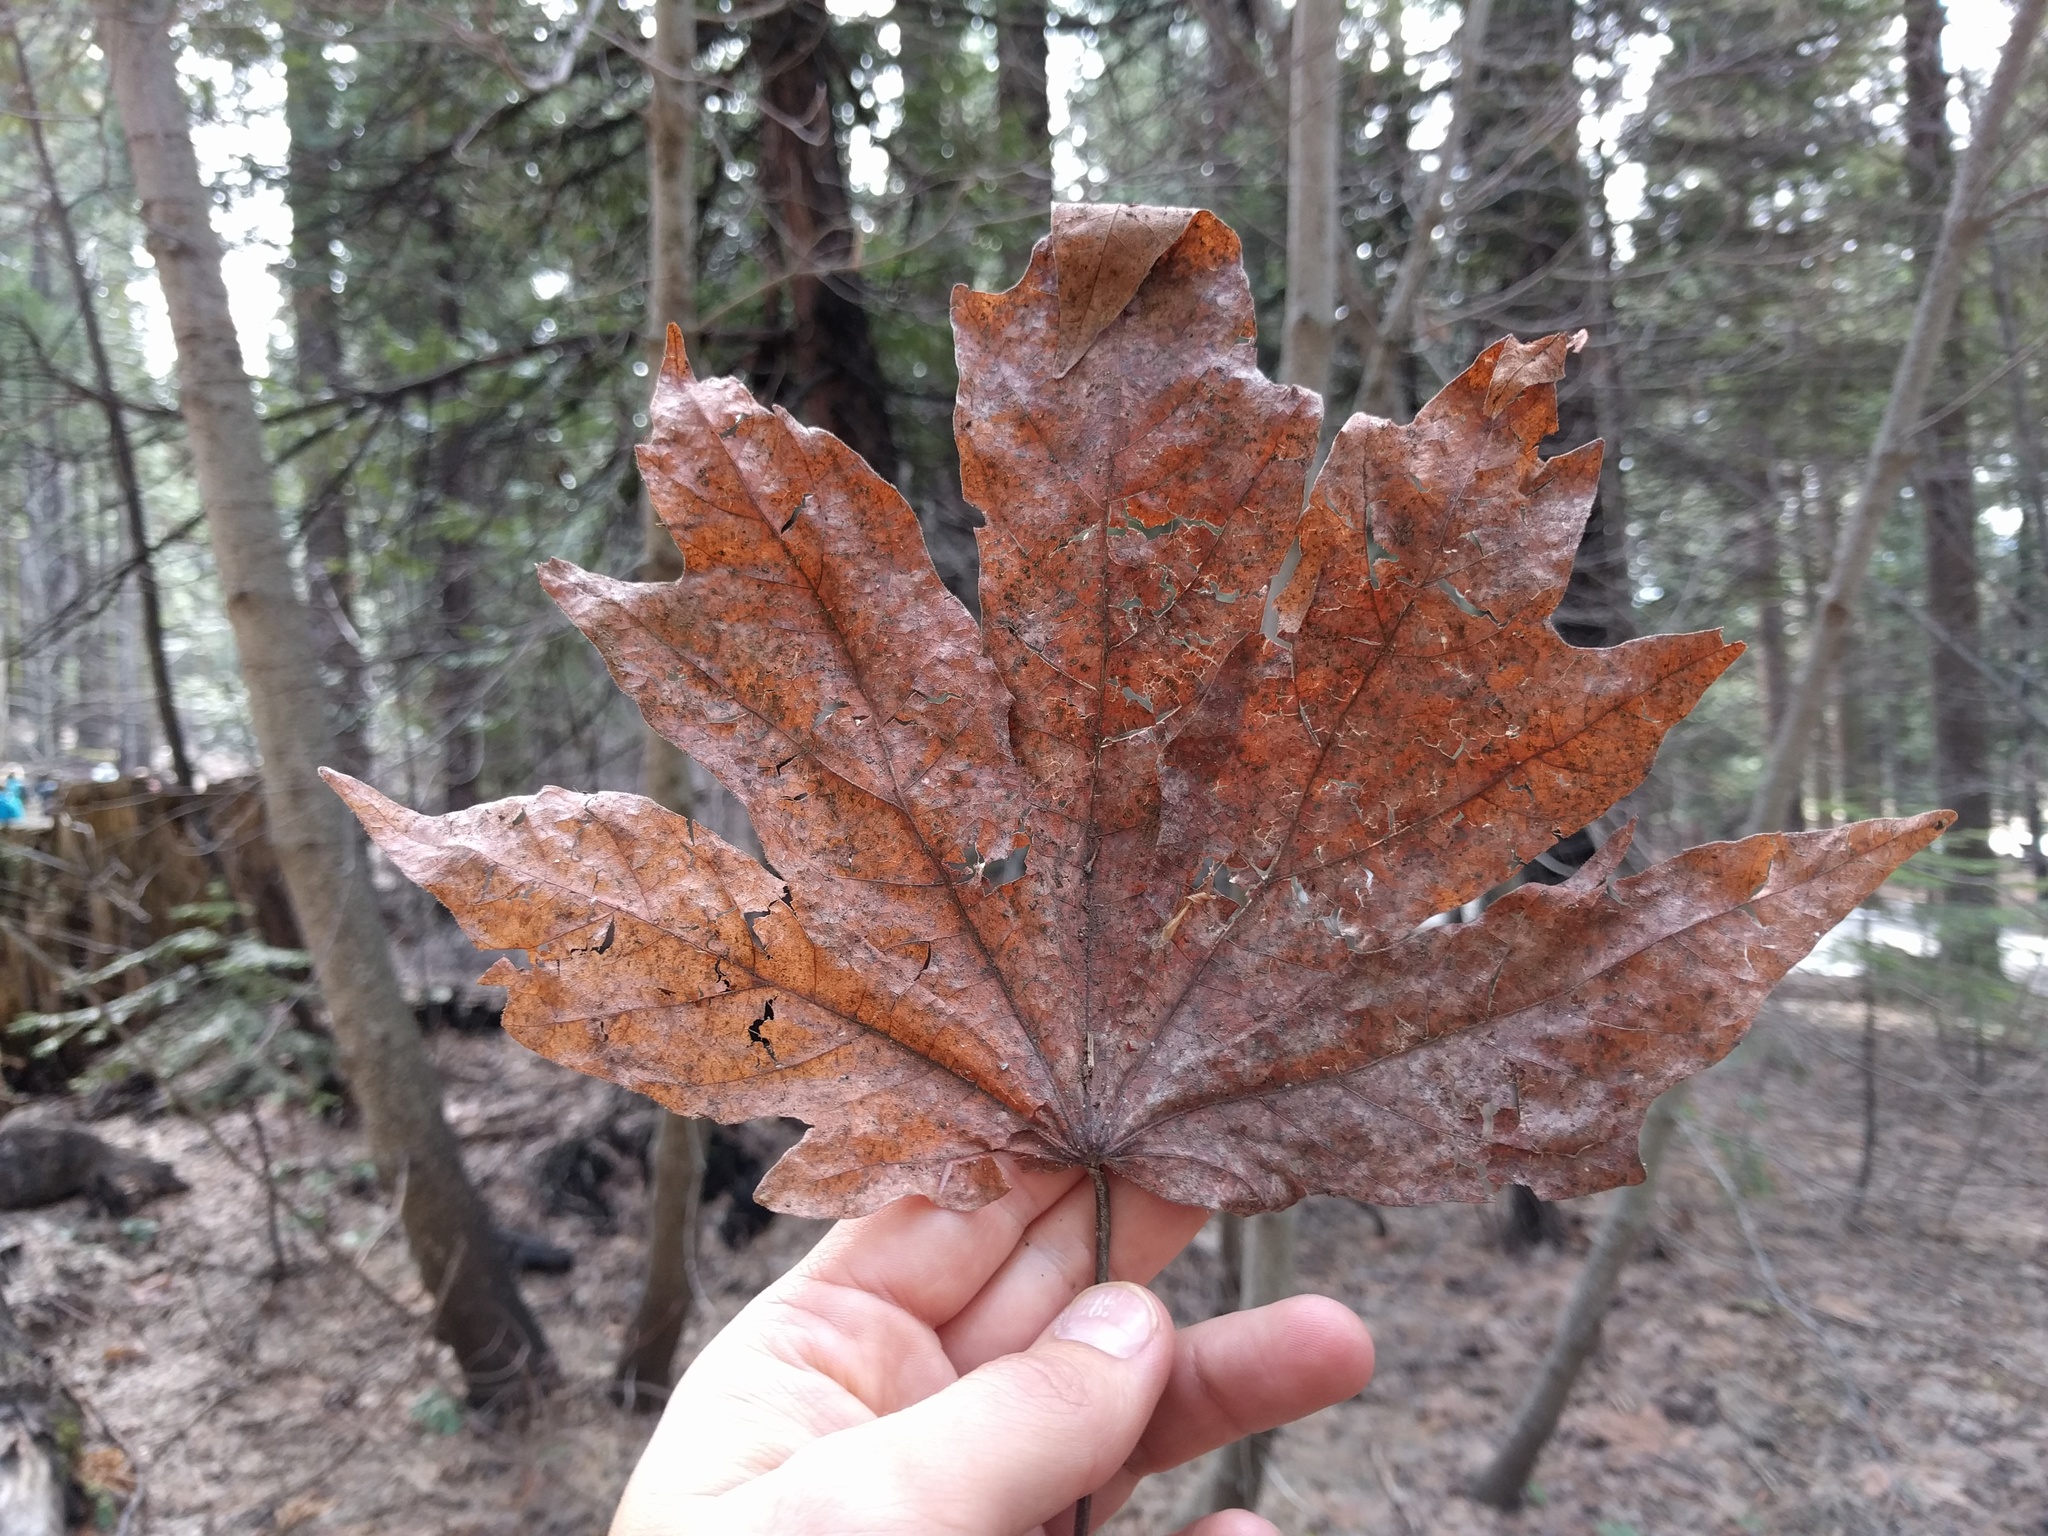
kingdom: Plantae
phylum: Tracheophyta
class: Magnoliopsida
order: Sapindales
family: Sapindaceae
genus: Acer
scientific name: Acer macrophyllum
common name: Oregon maple
